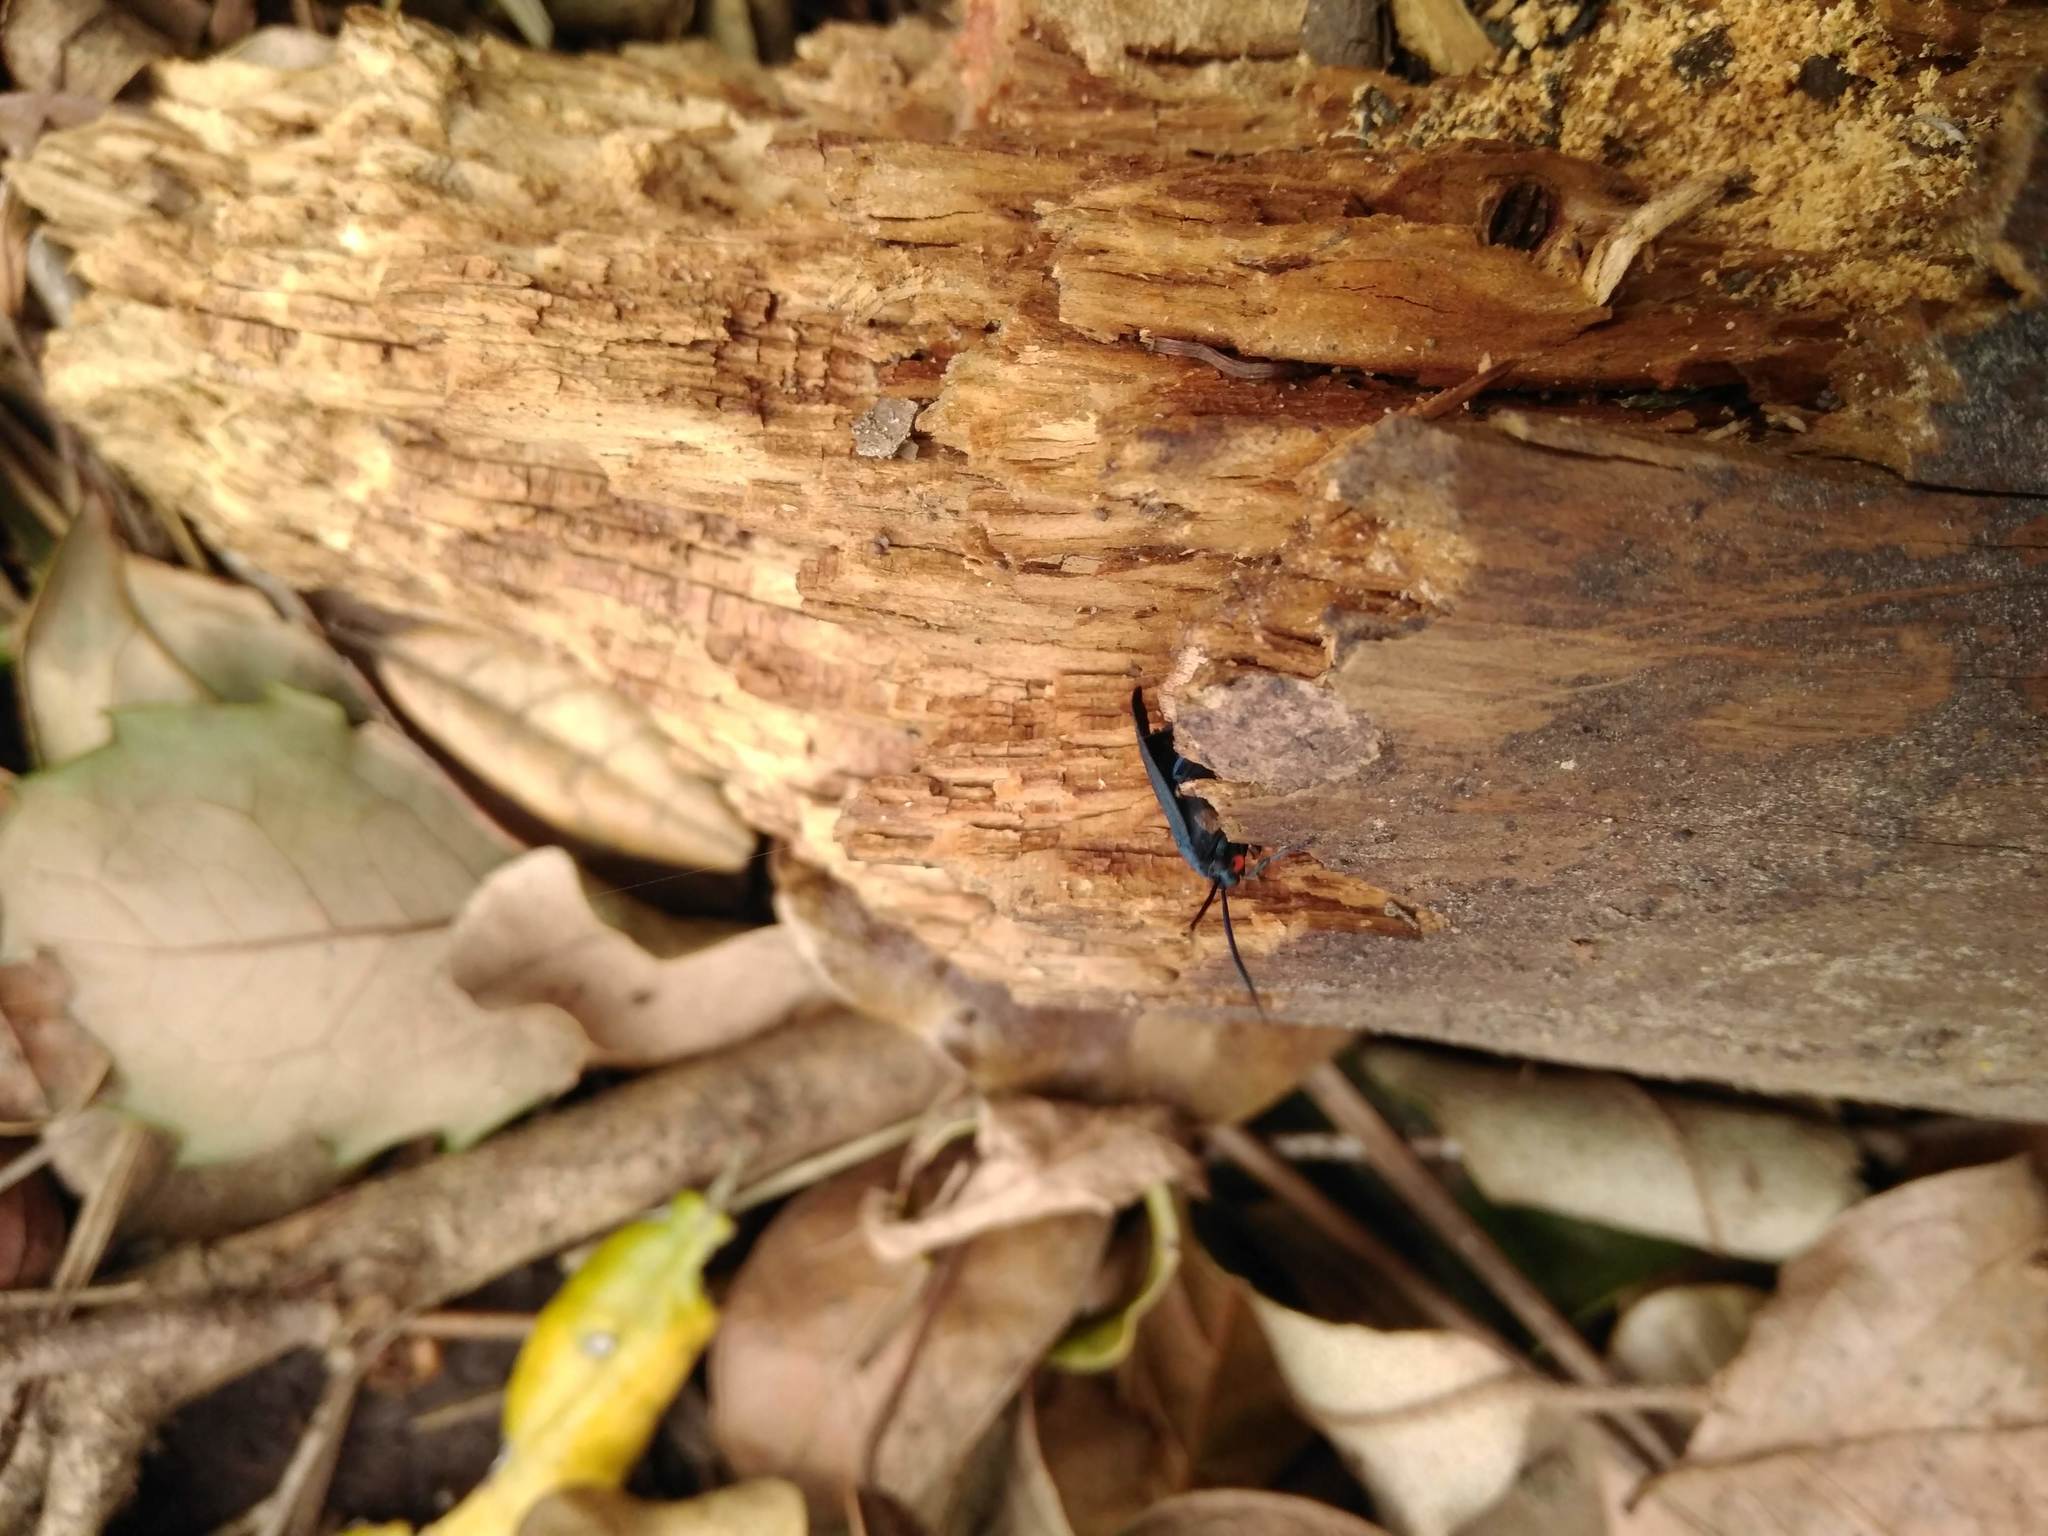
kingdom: Animalia
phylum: Arthropoda
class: Insecta
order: Lepidoptera
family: Zygaenidae
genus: Malamblia
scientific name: Malamblia
